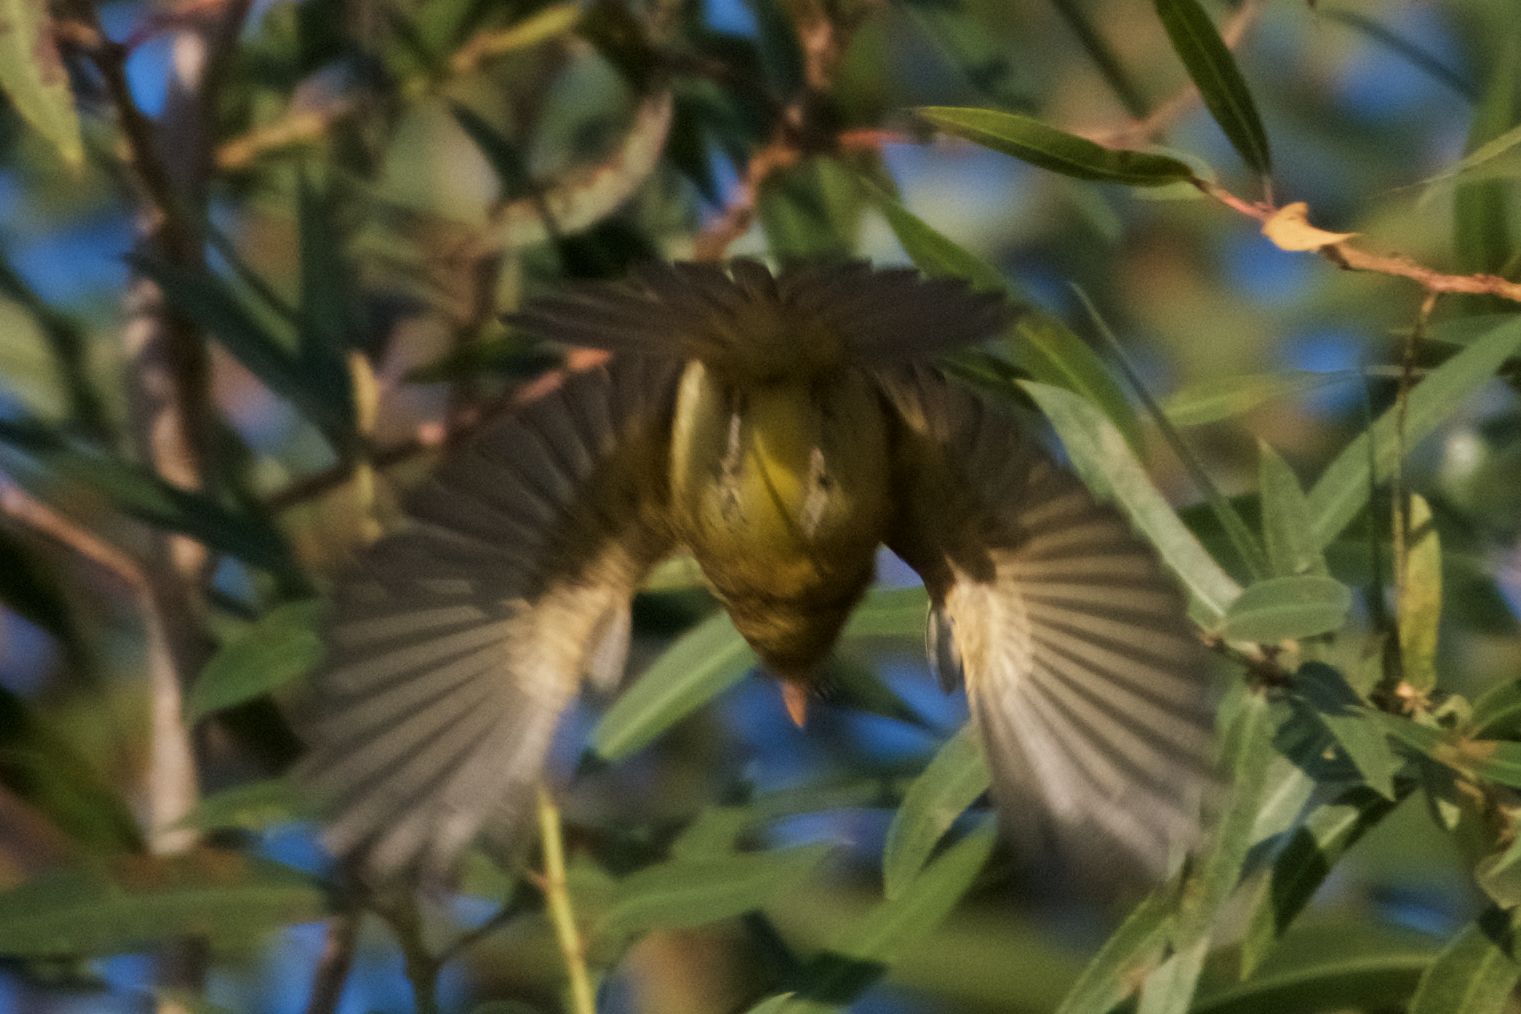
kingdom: Animalia
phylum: Chordata
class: Aves
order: Passeriformes
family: Tyrannidae
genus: Empidonax
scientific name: Empidonax difficilis
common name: Pacific-slope flycatcher
